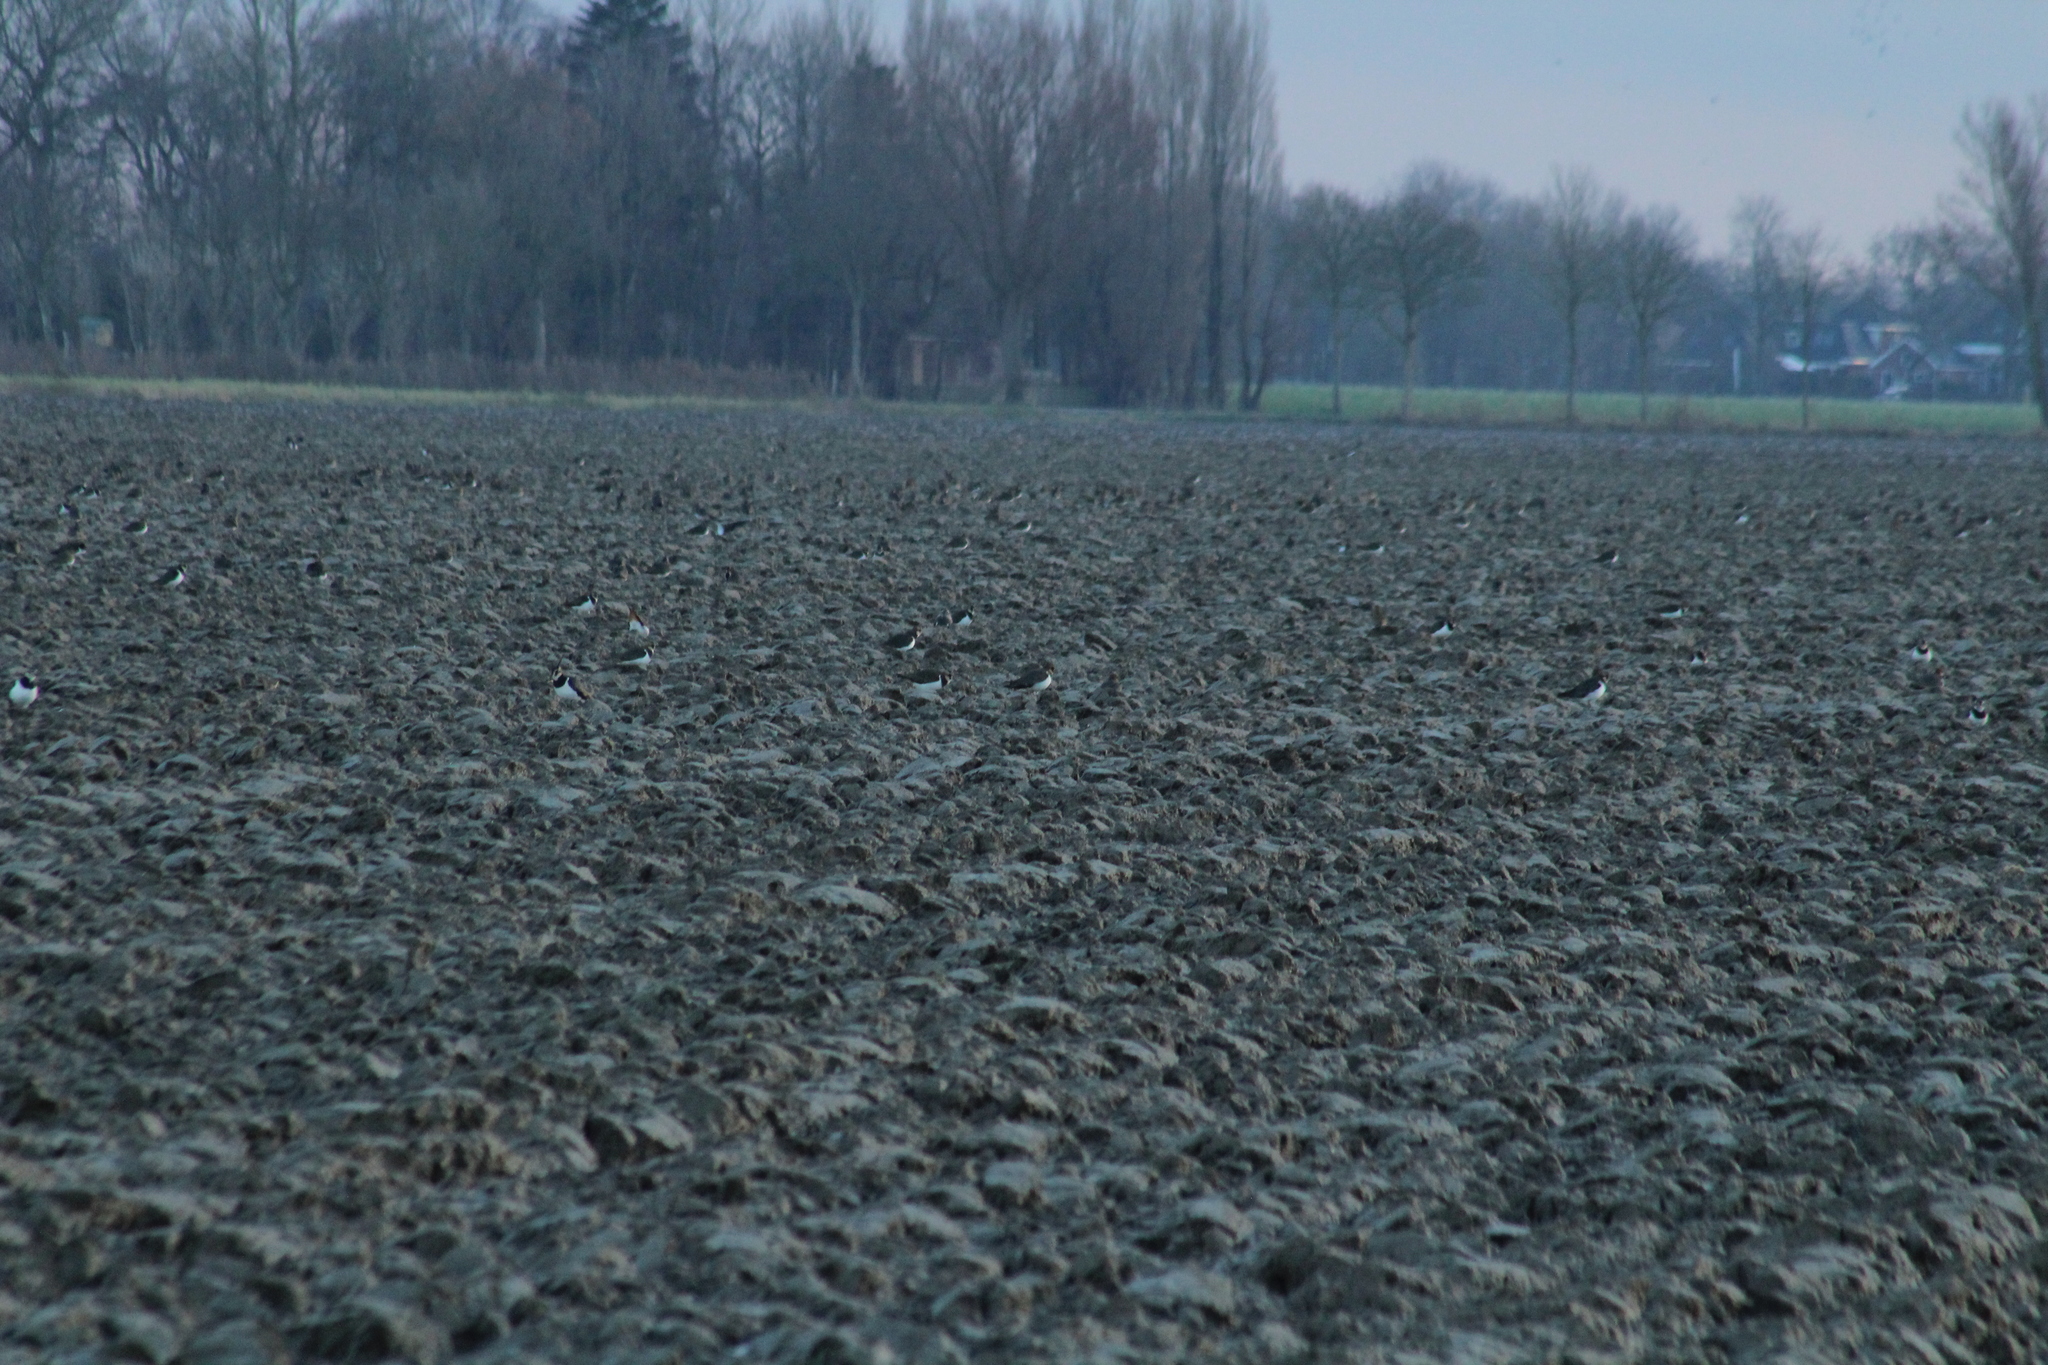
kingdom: Animalia
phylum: Chordata
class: Aves
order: Charadriiformes
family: Charadriidae
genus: Vanellus
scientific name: Vanellus vanellus
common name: Northern lapwing
